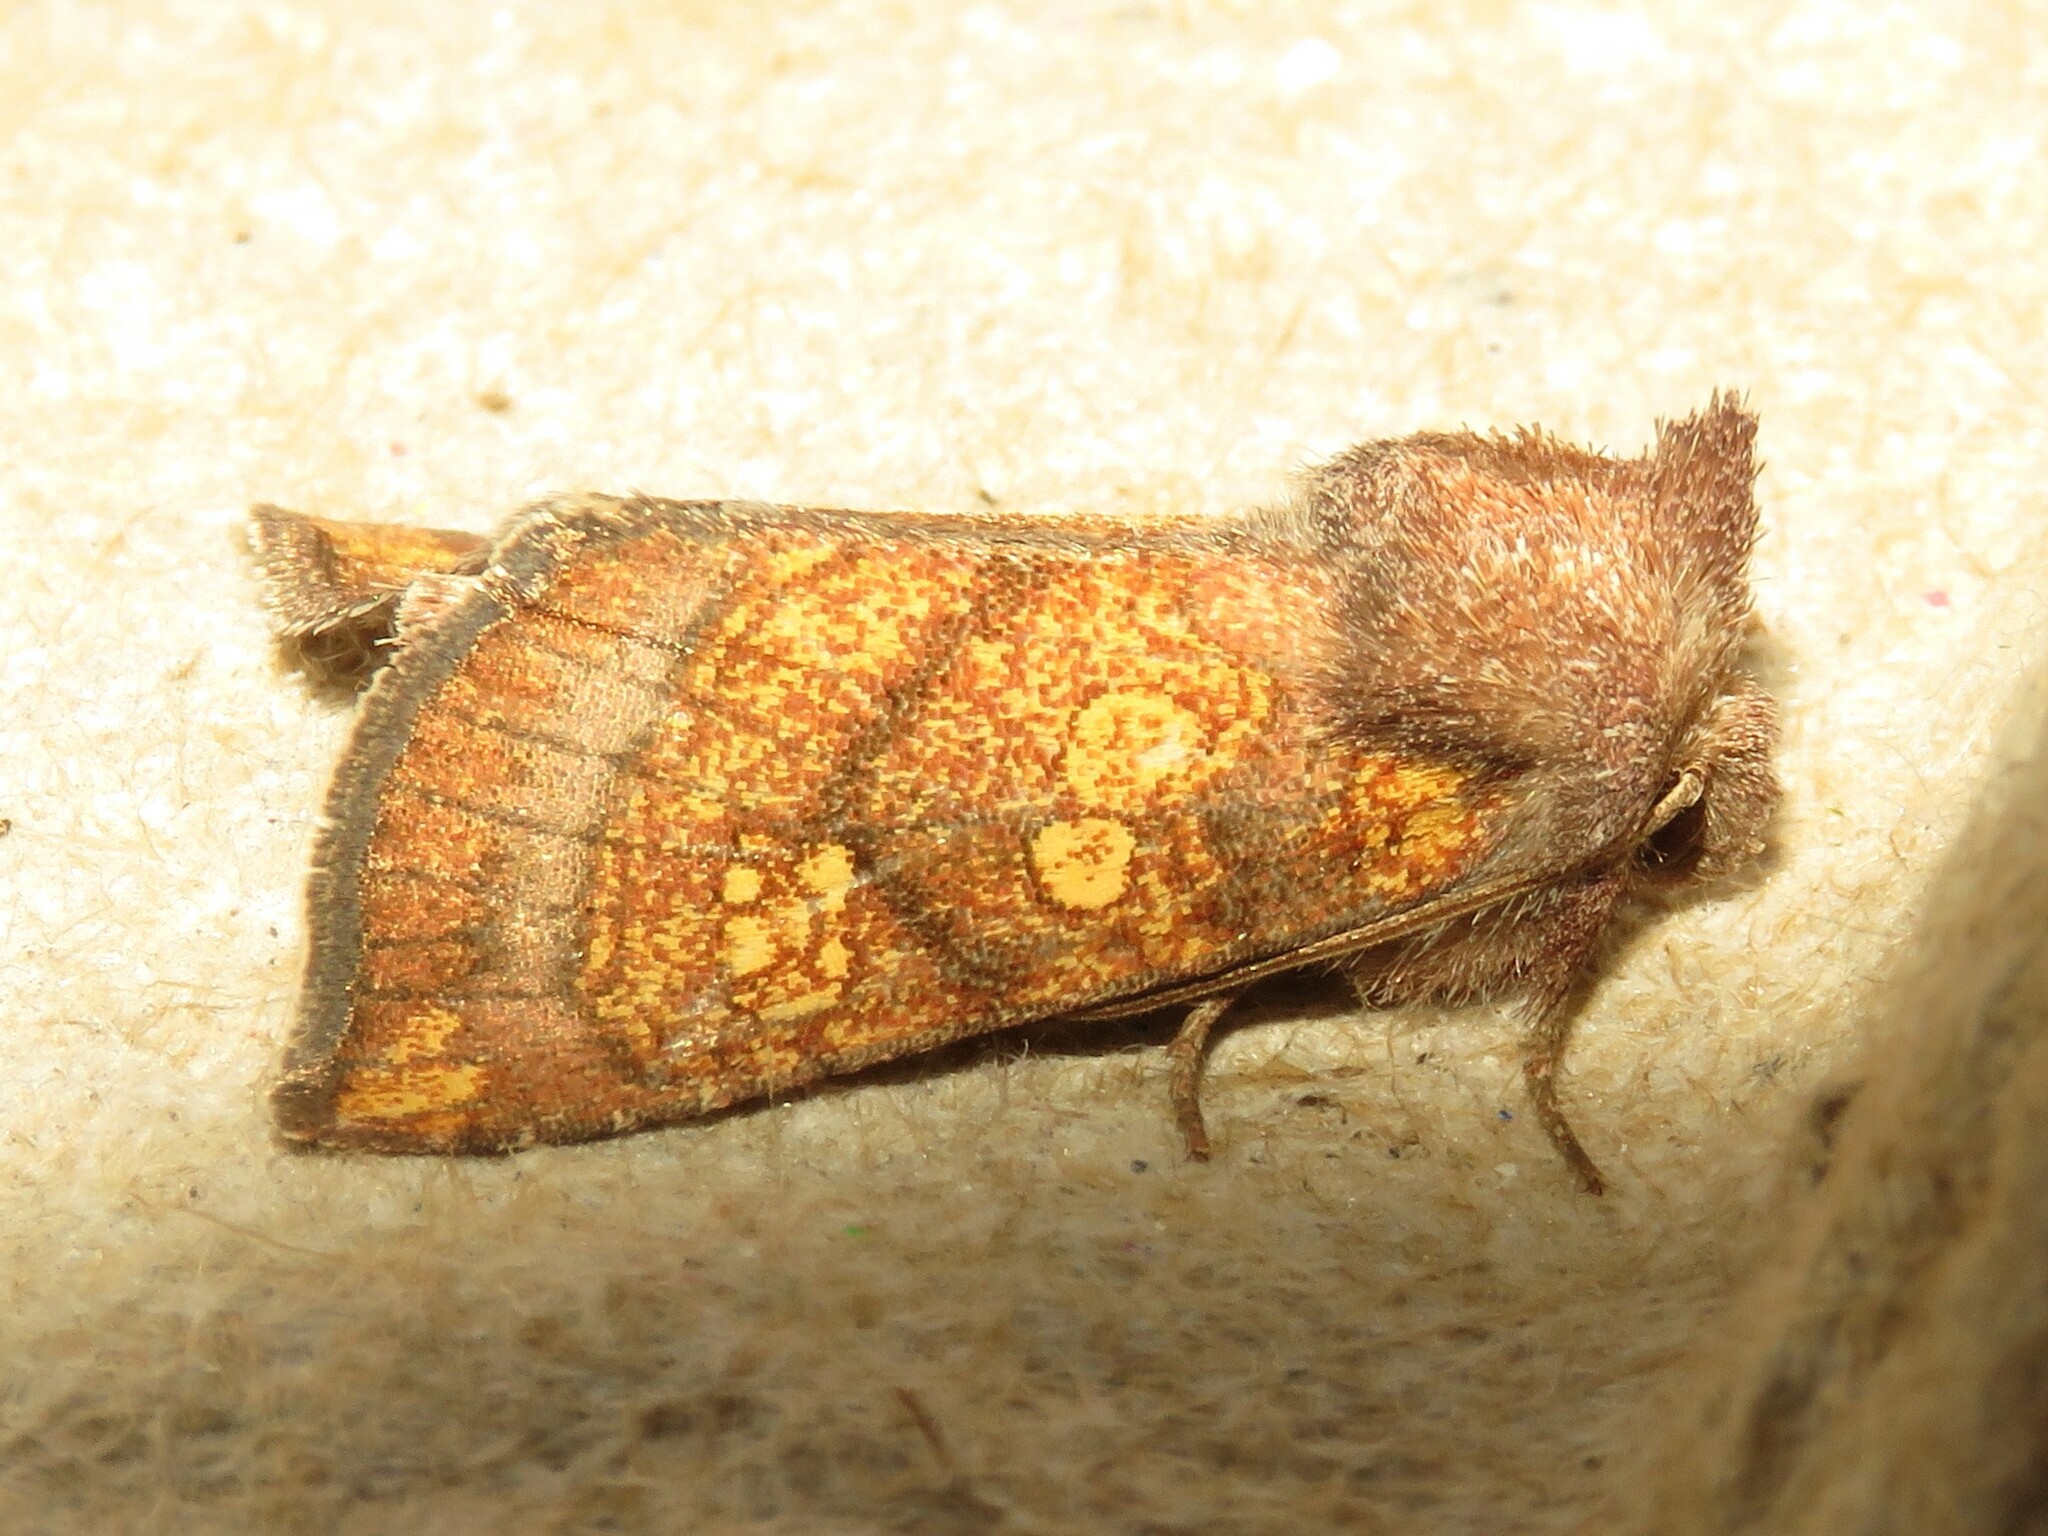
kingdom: Animalia
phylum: Arthropoda
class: Insecta
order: Lepidoptera
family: Noctuidae
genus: Papaipema
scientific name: Papaipema impecuniosa
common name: Aster borer moth
